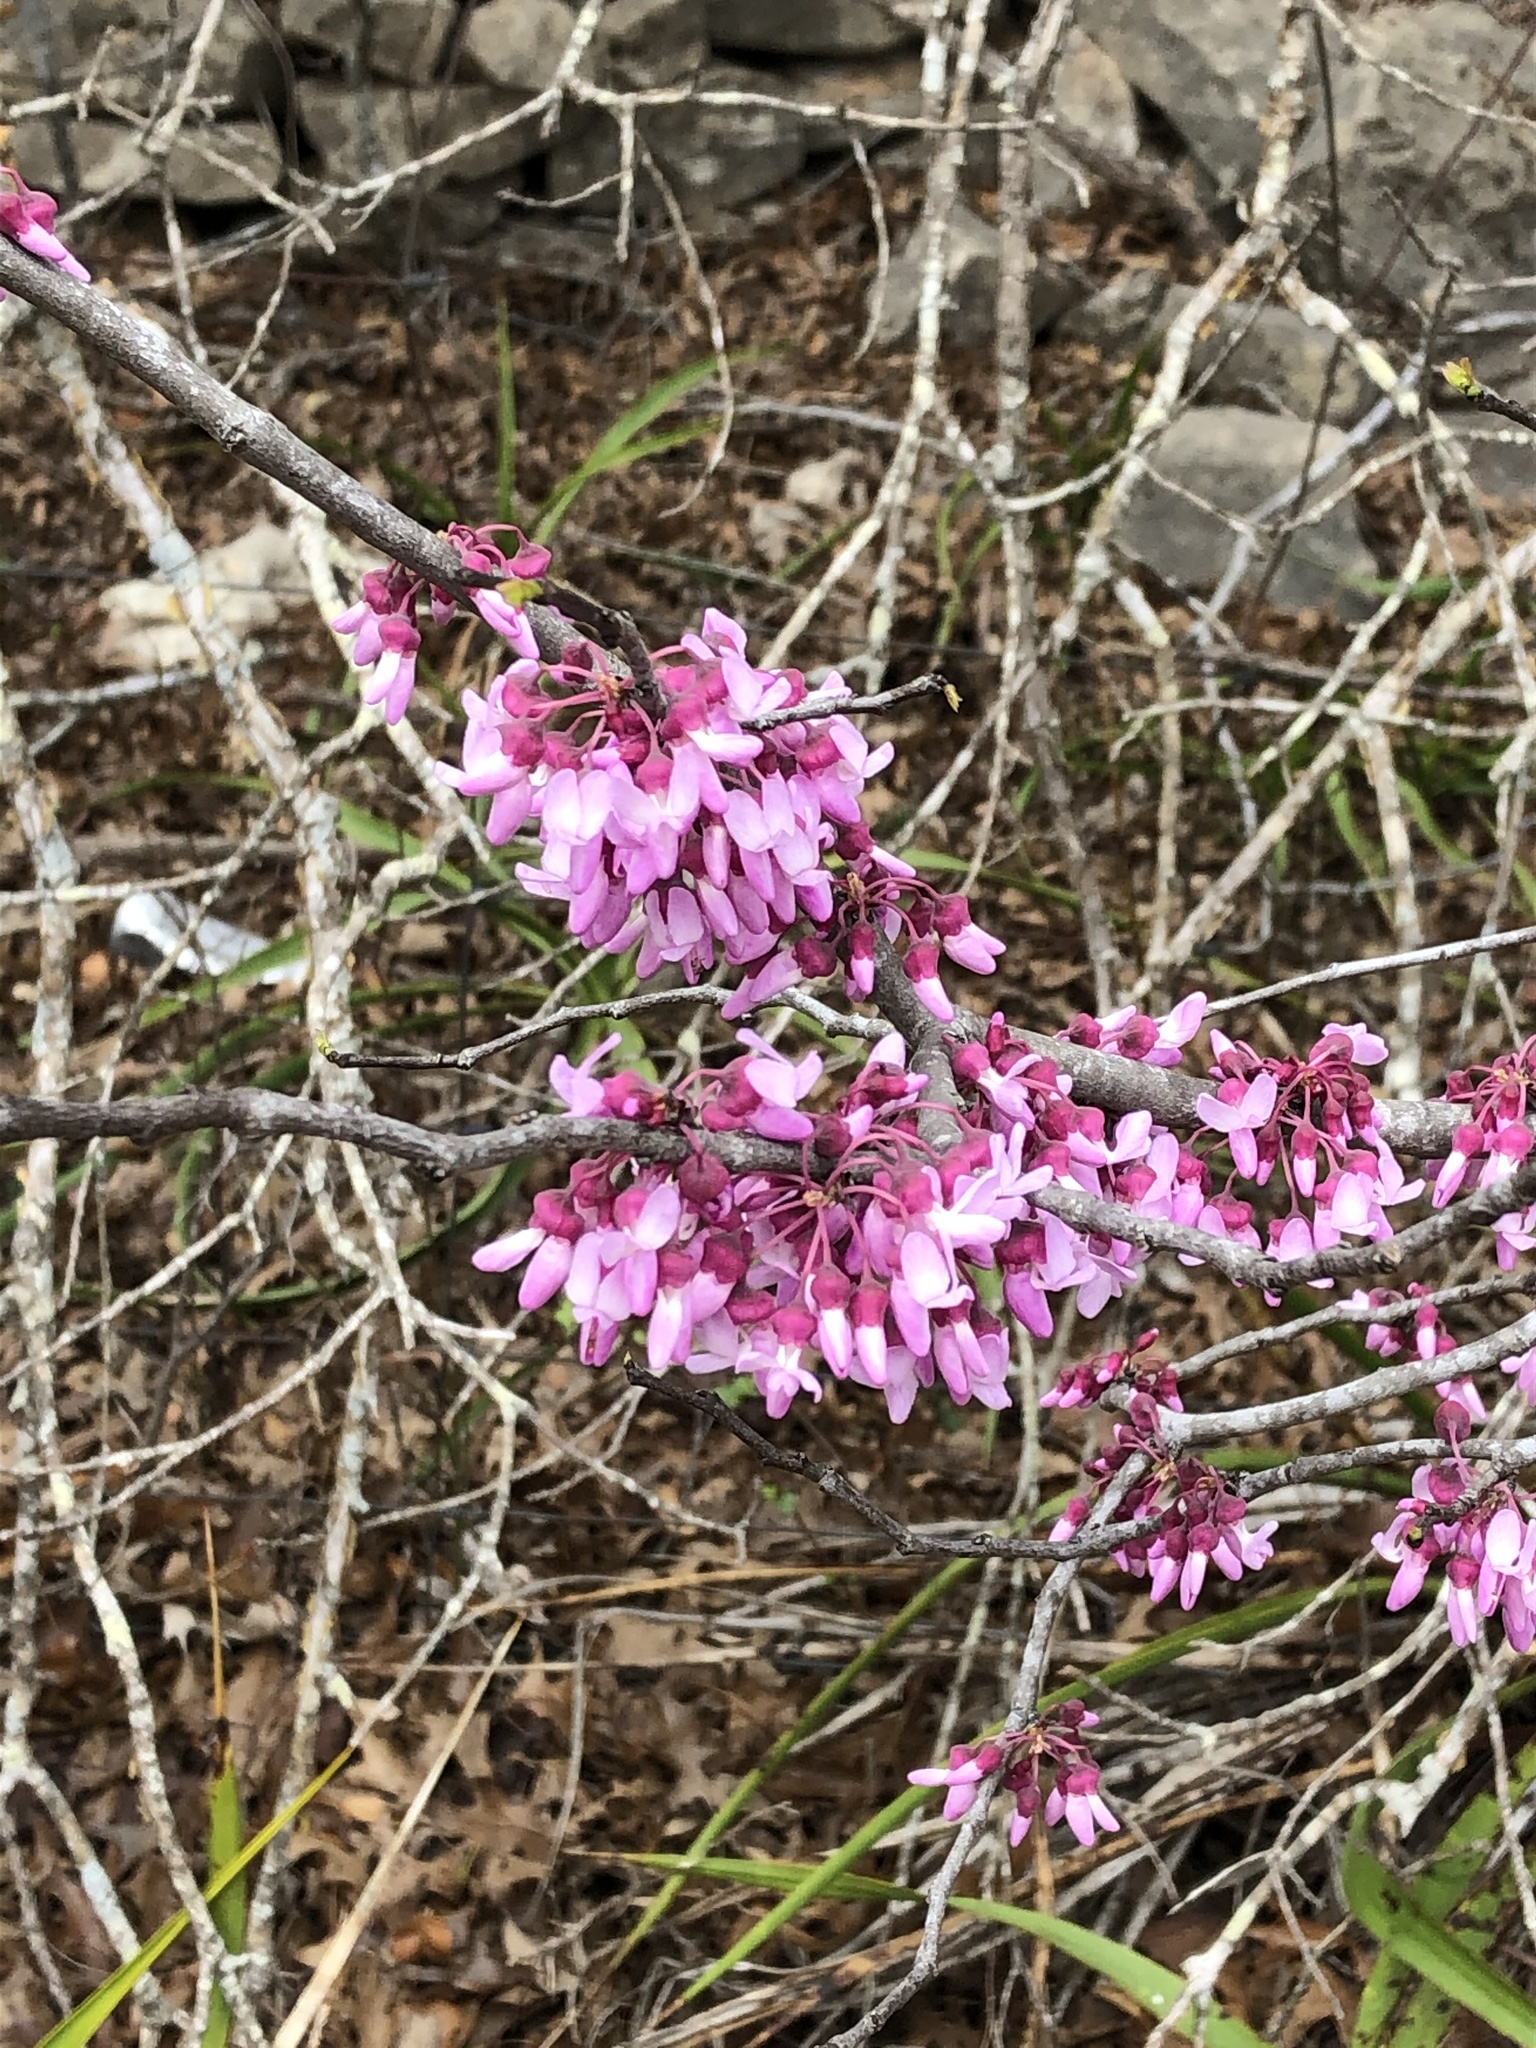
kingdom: Plantae
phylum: Tracheophyta
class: Magnoliopsida
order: Fabales
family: Fabaceae
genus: Cercis
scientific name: Cercis canadensis
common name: Eastern redbud
